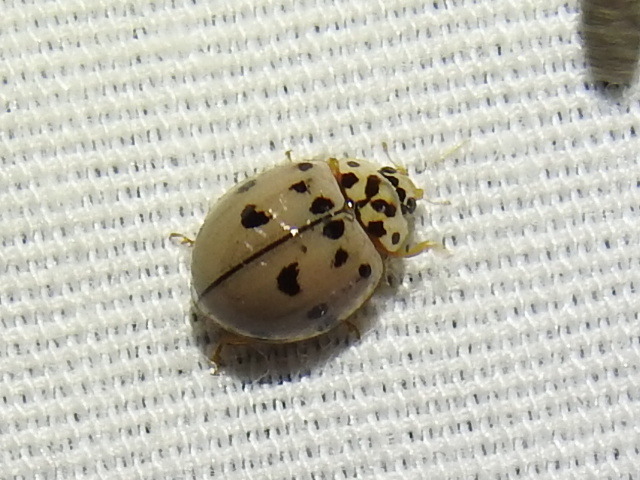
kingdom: Animalia
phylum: Arthropoda
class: Insecta
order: Coleoptera
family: Coccinellidae
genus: Olla
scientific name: Olla v-nigrum
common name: Ashy gray lady beetle
